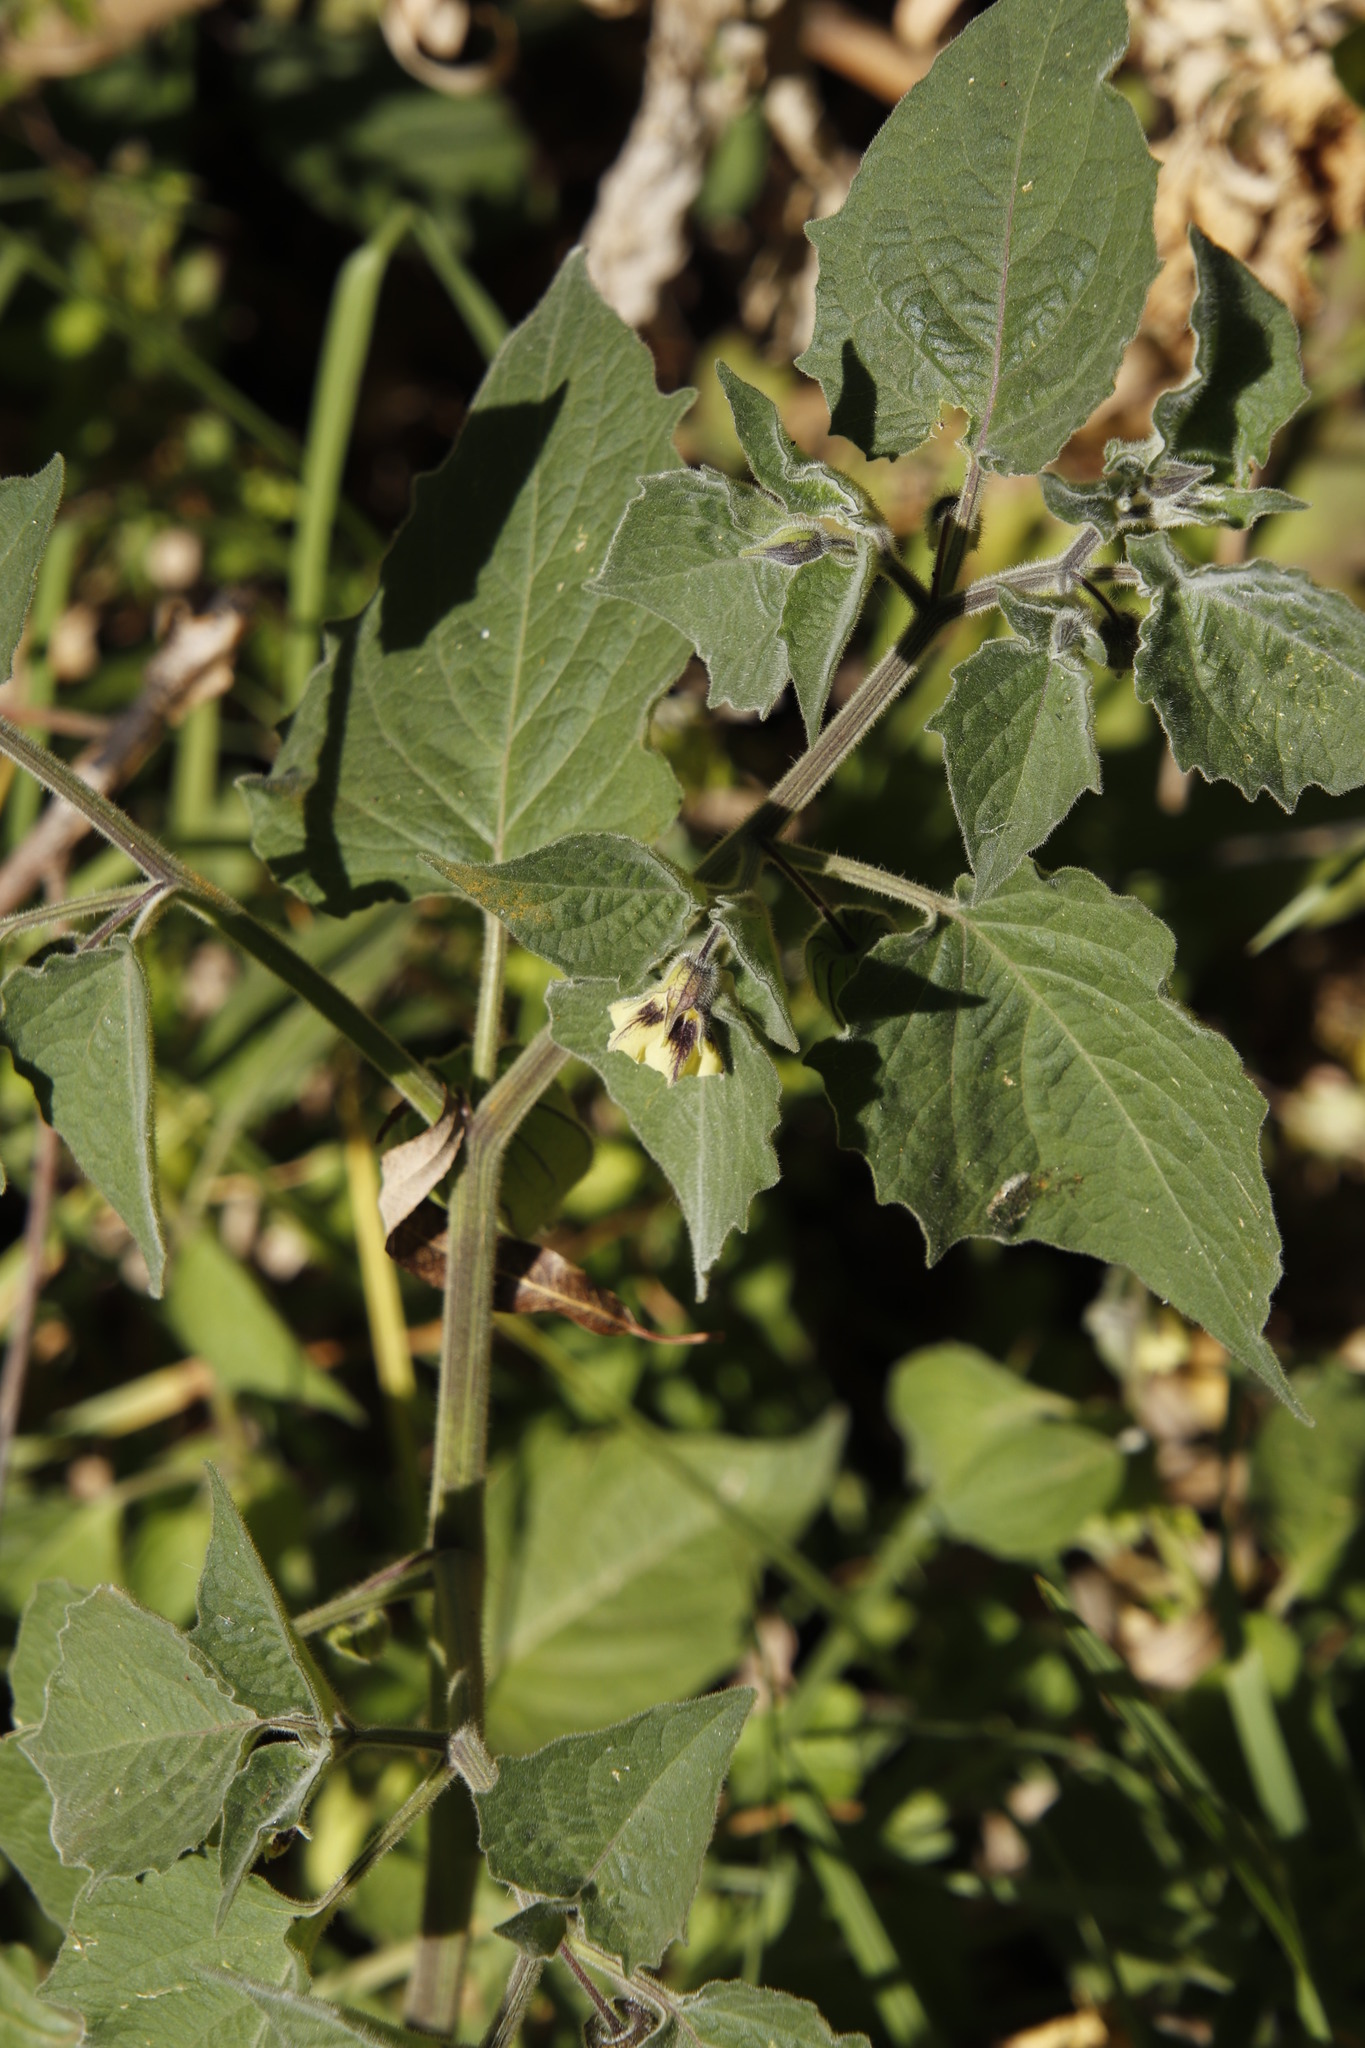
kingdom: Plantae
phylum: Tracheophyta
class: Magnoliopsida
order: Solanales
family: Solanaceae
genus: Physalis
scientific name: Physalis peruviana
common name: Cape-gooseberry
